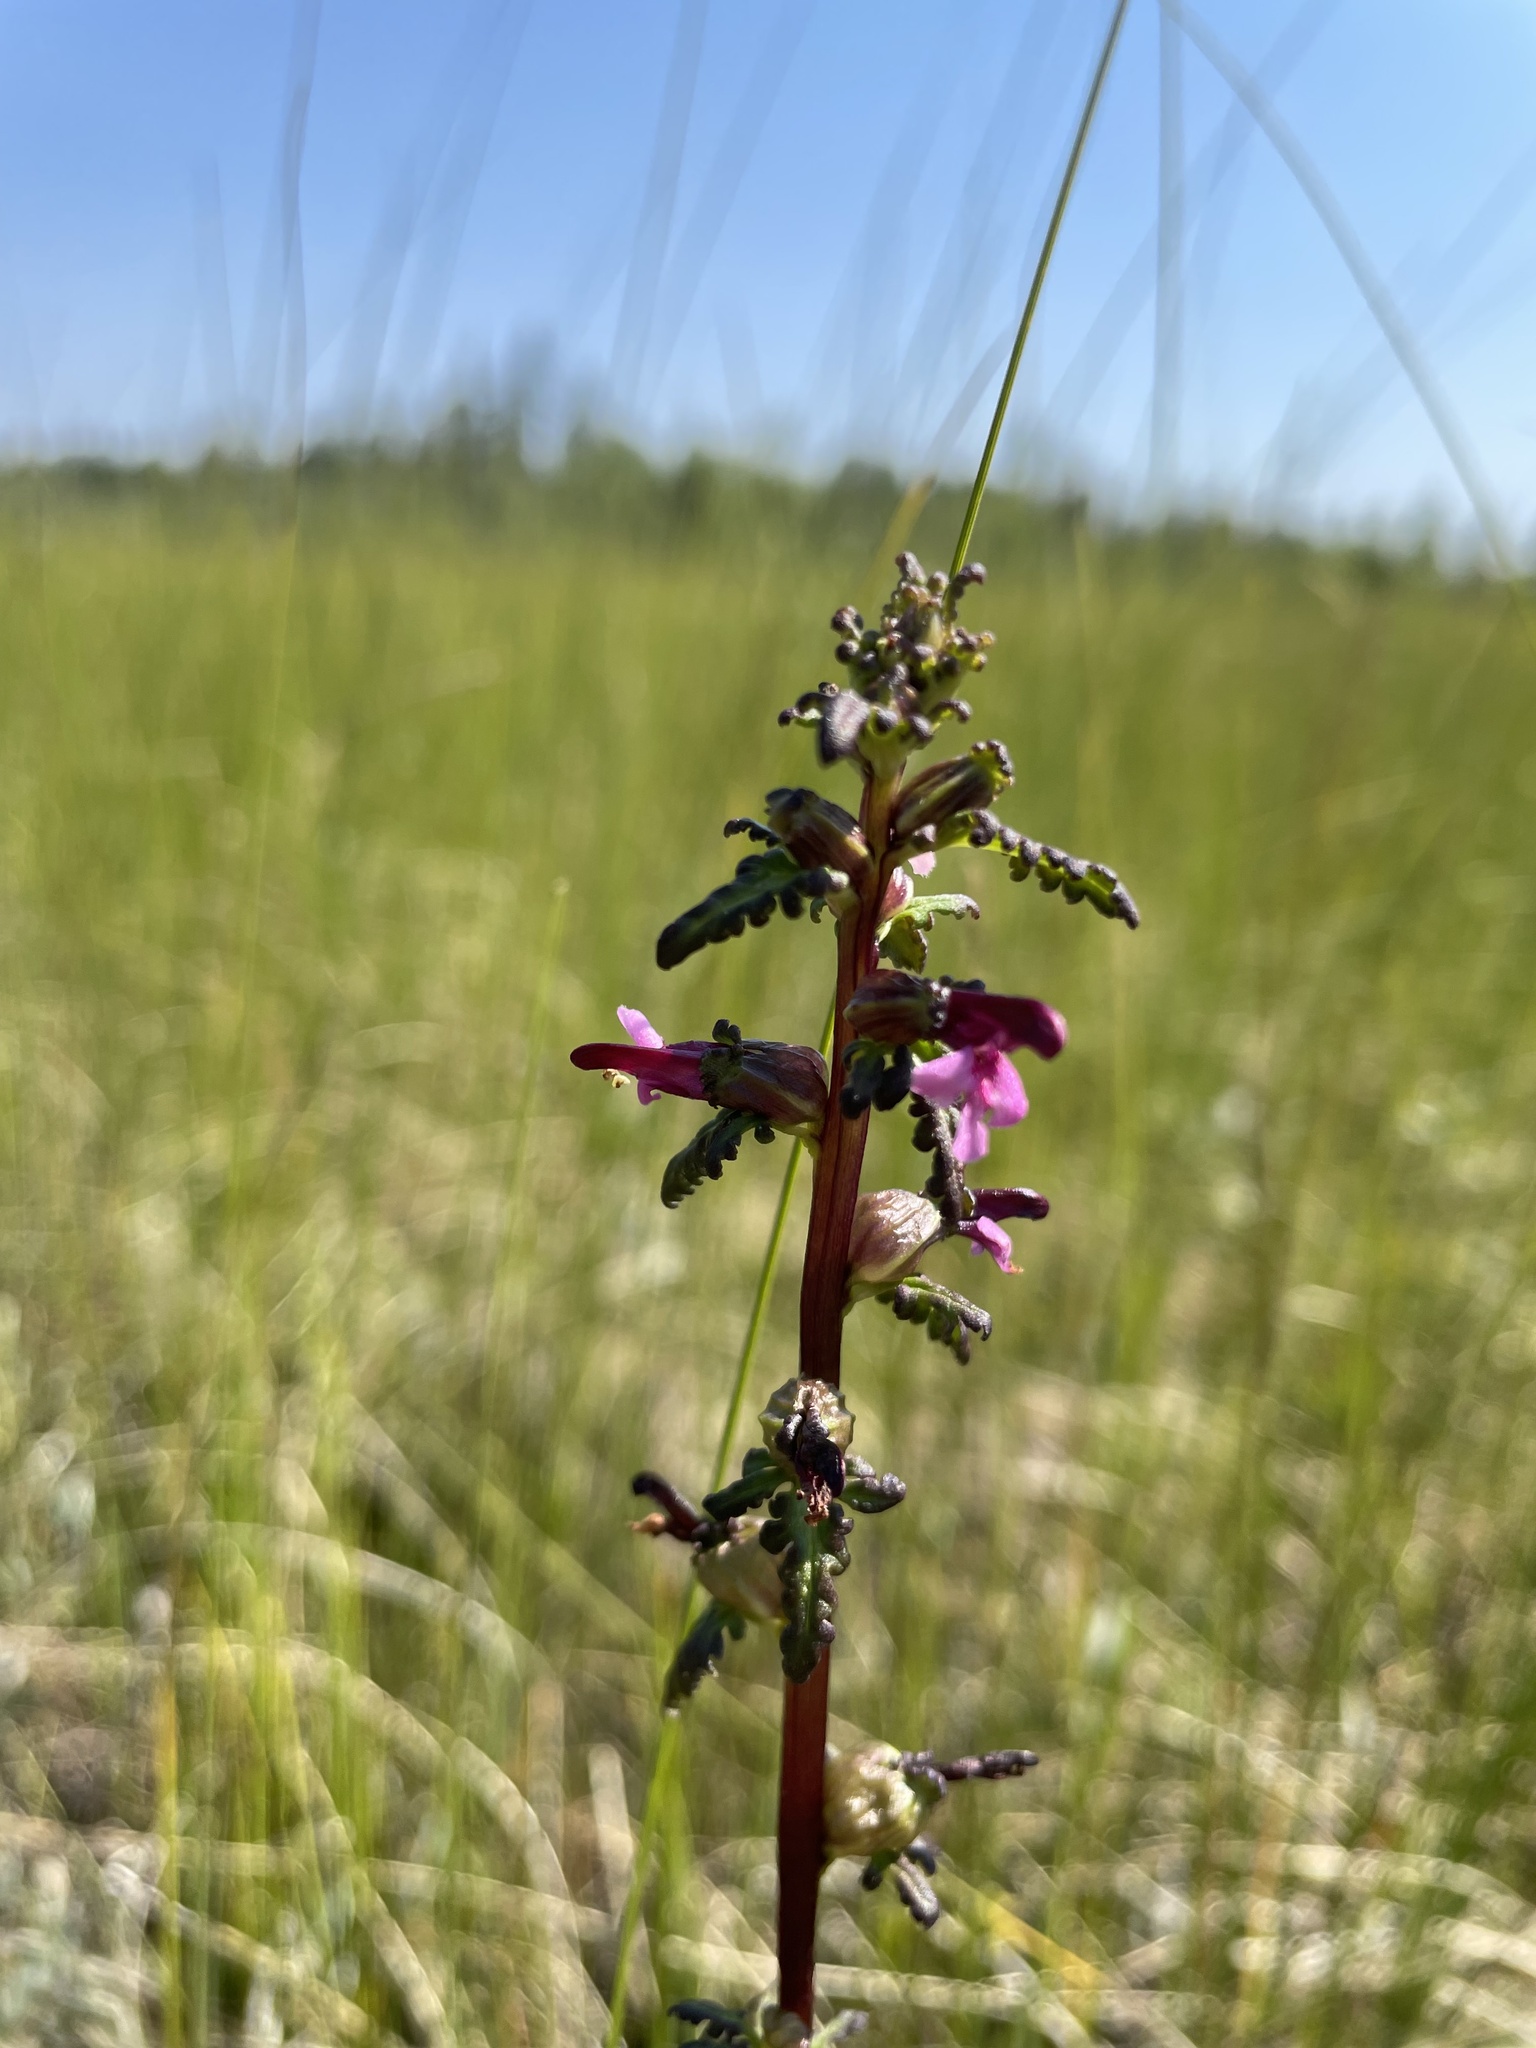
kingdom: Plantae
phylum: Tracheophyta
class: Magnoliopsida
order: Lamiales
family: Orobanchaceae
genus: Pedicularis
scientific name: Pedicularis parviflora
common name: Muskeg lousewort
